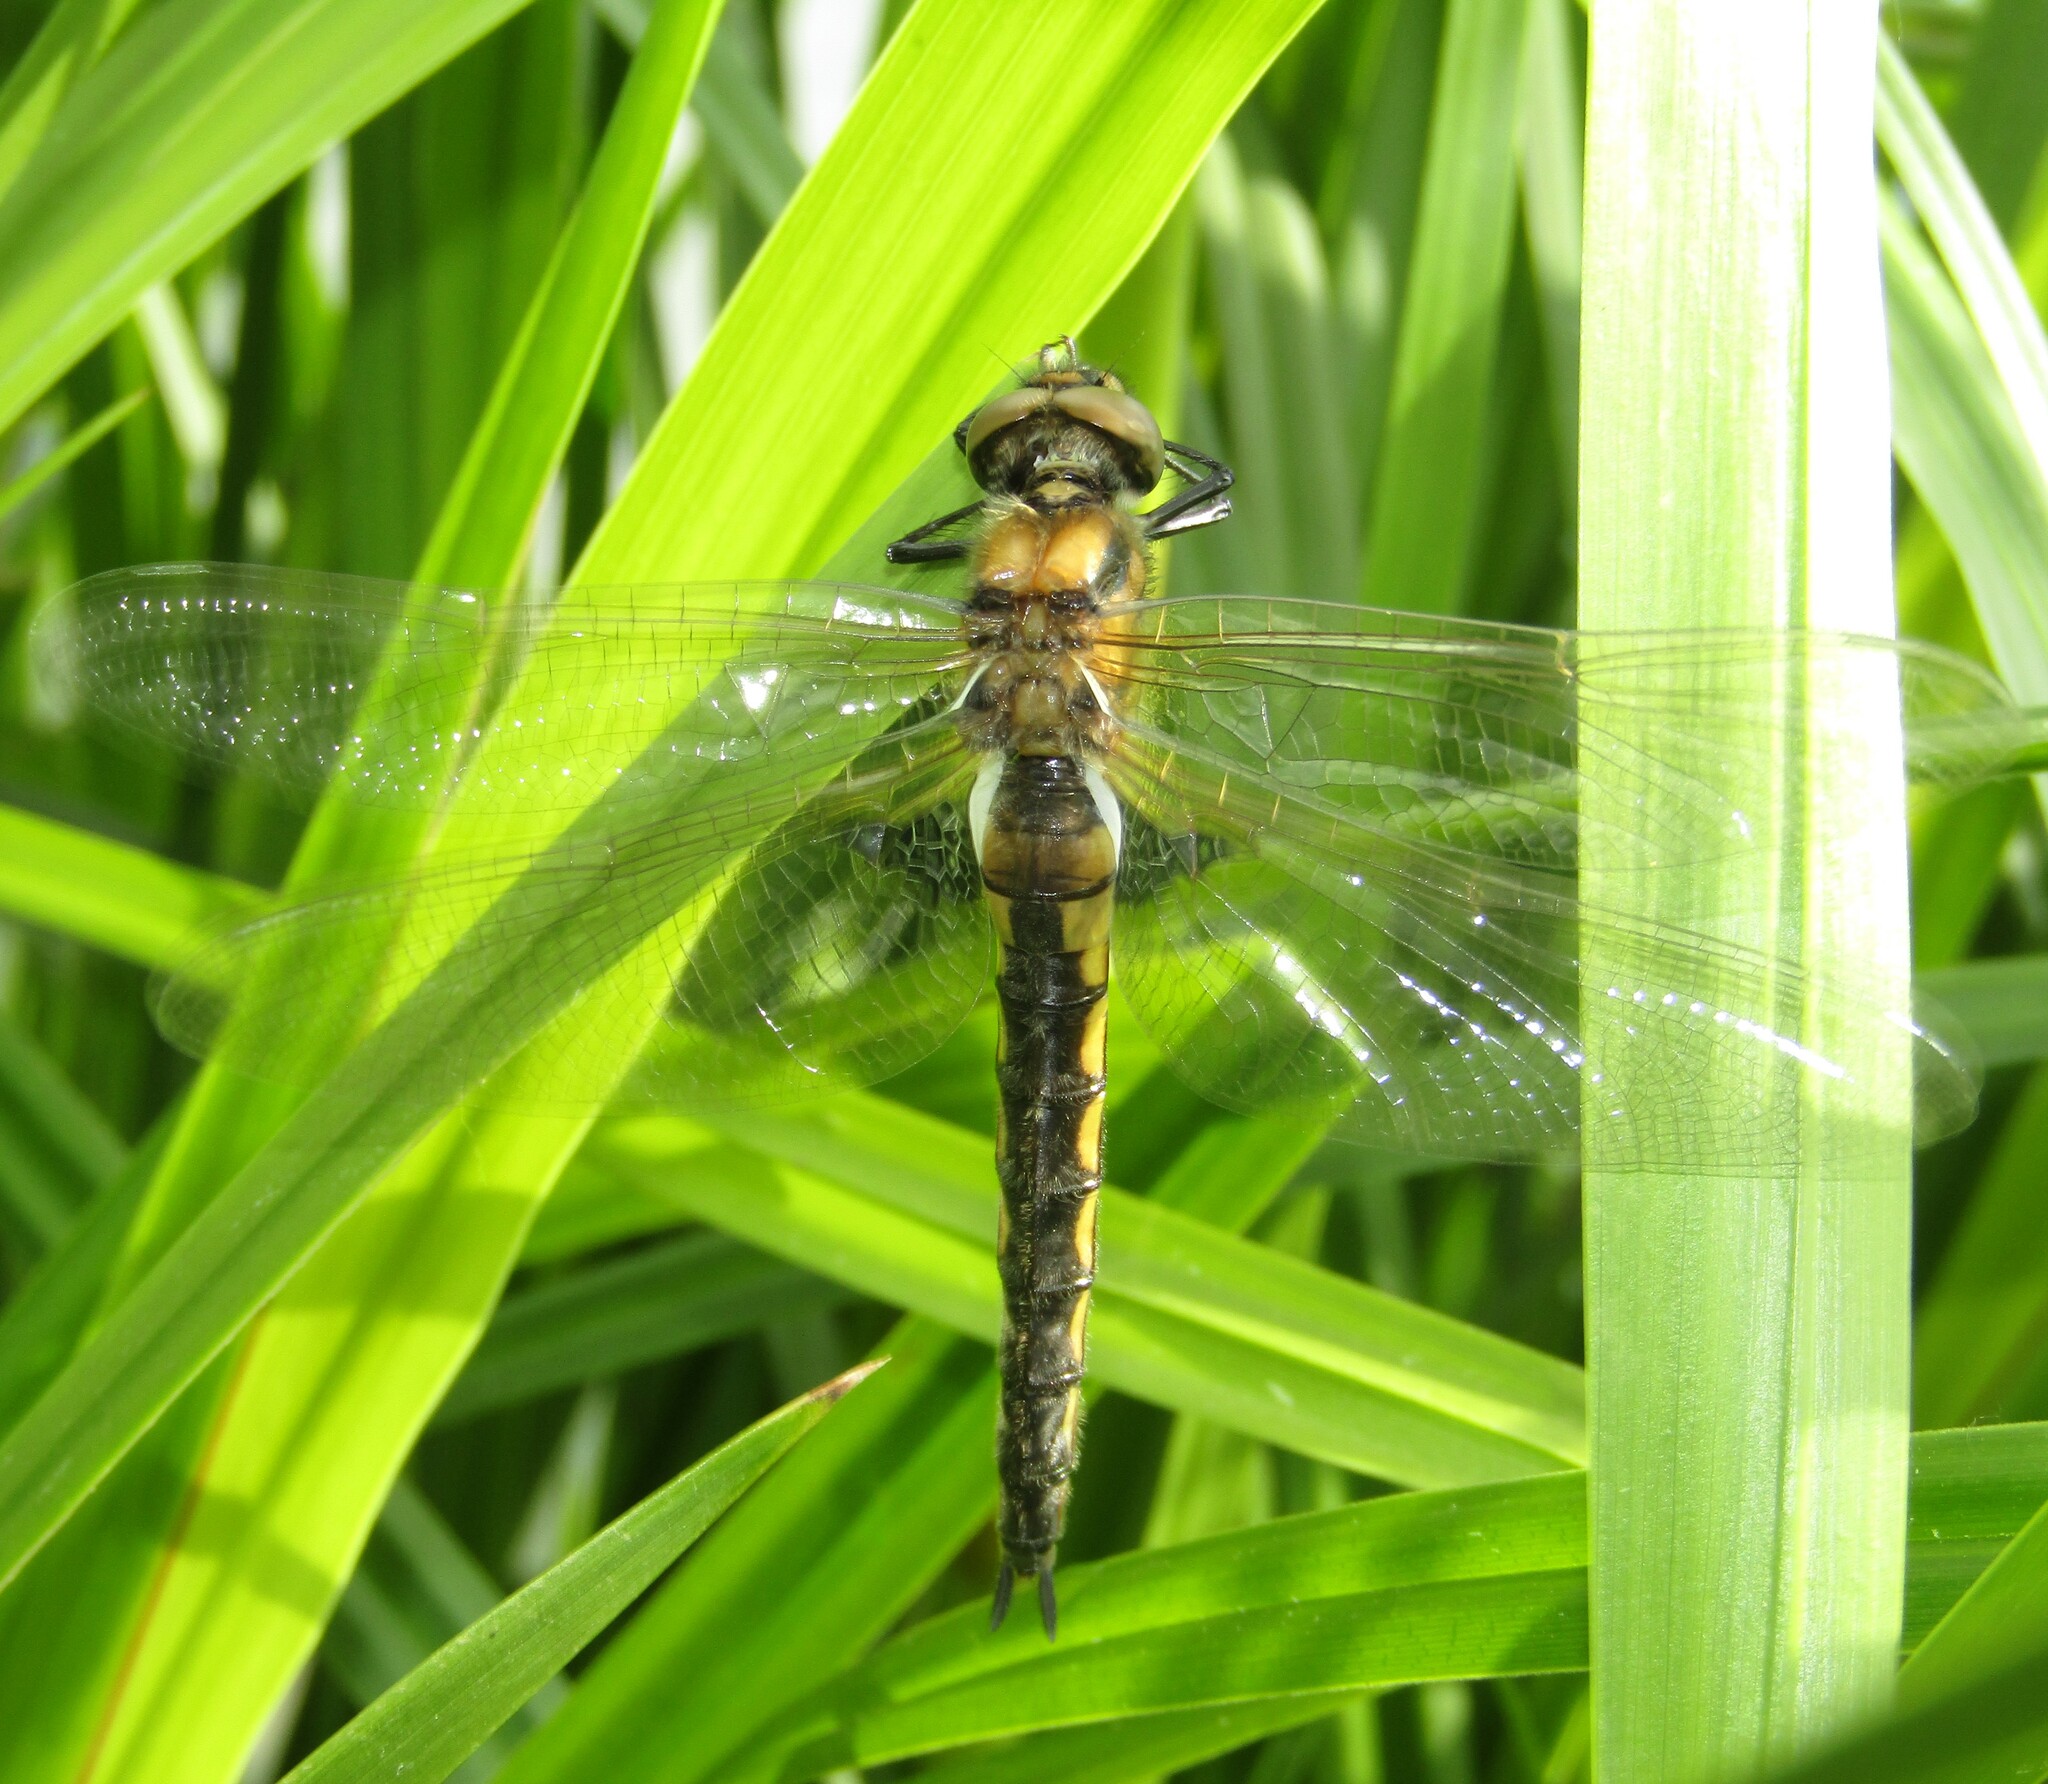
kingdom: Animalia
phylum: Arthropoda
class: Insecta
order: Odonata
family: Corduliidae
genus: Epitheca
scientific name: Epitheca bimaculata
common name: Eurasian baskettail
